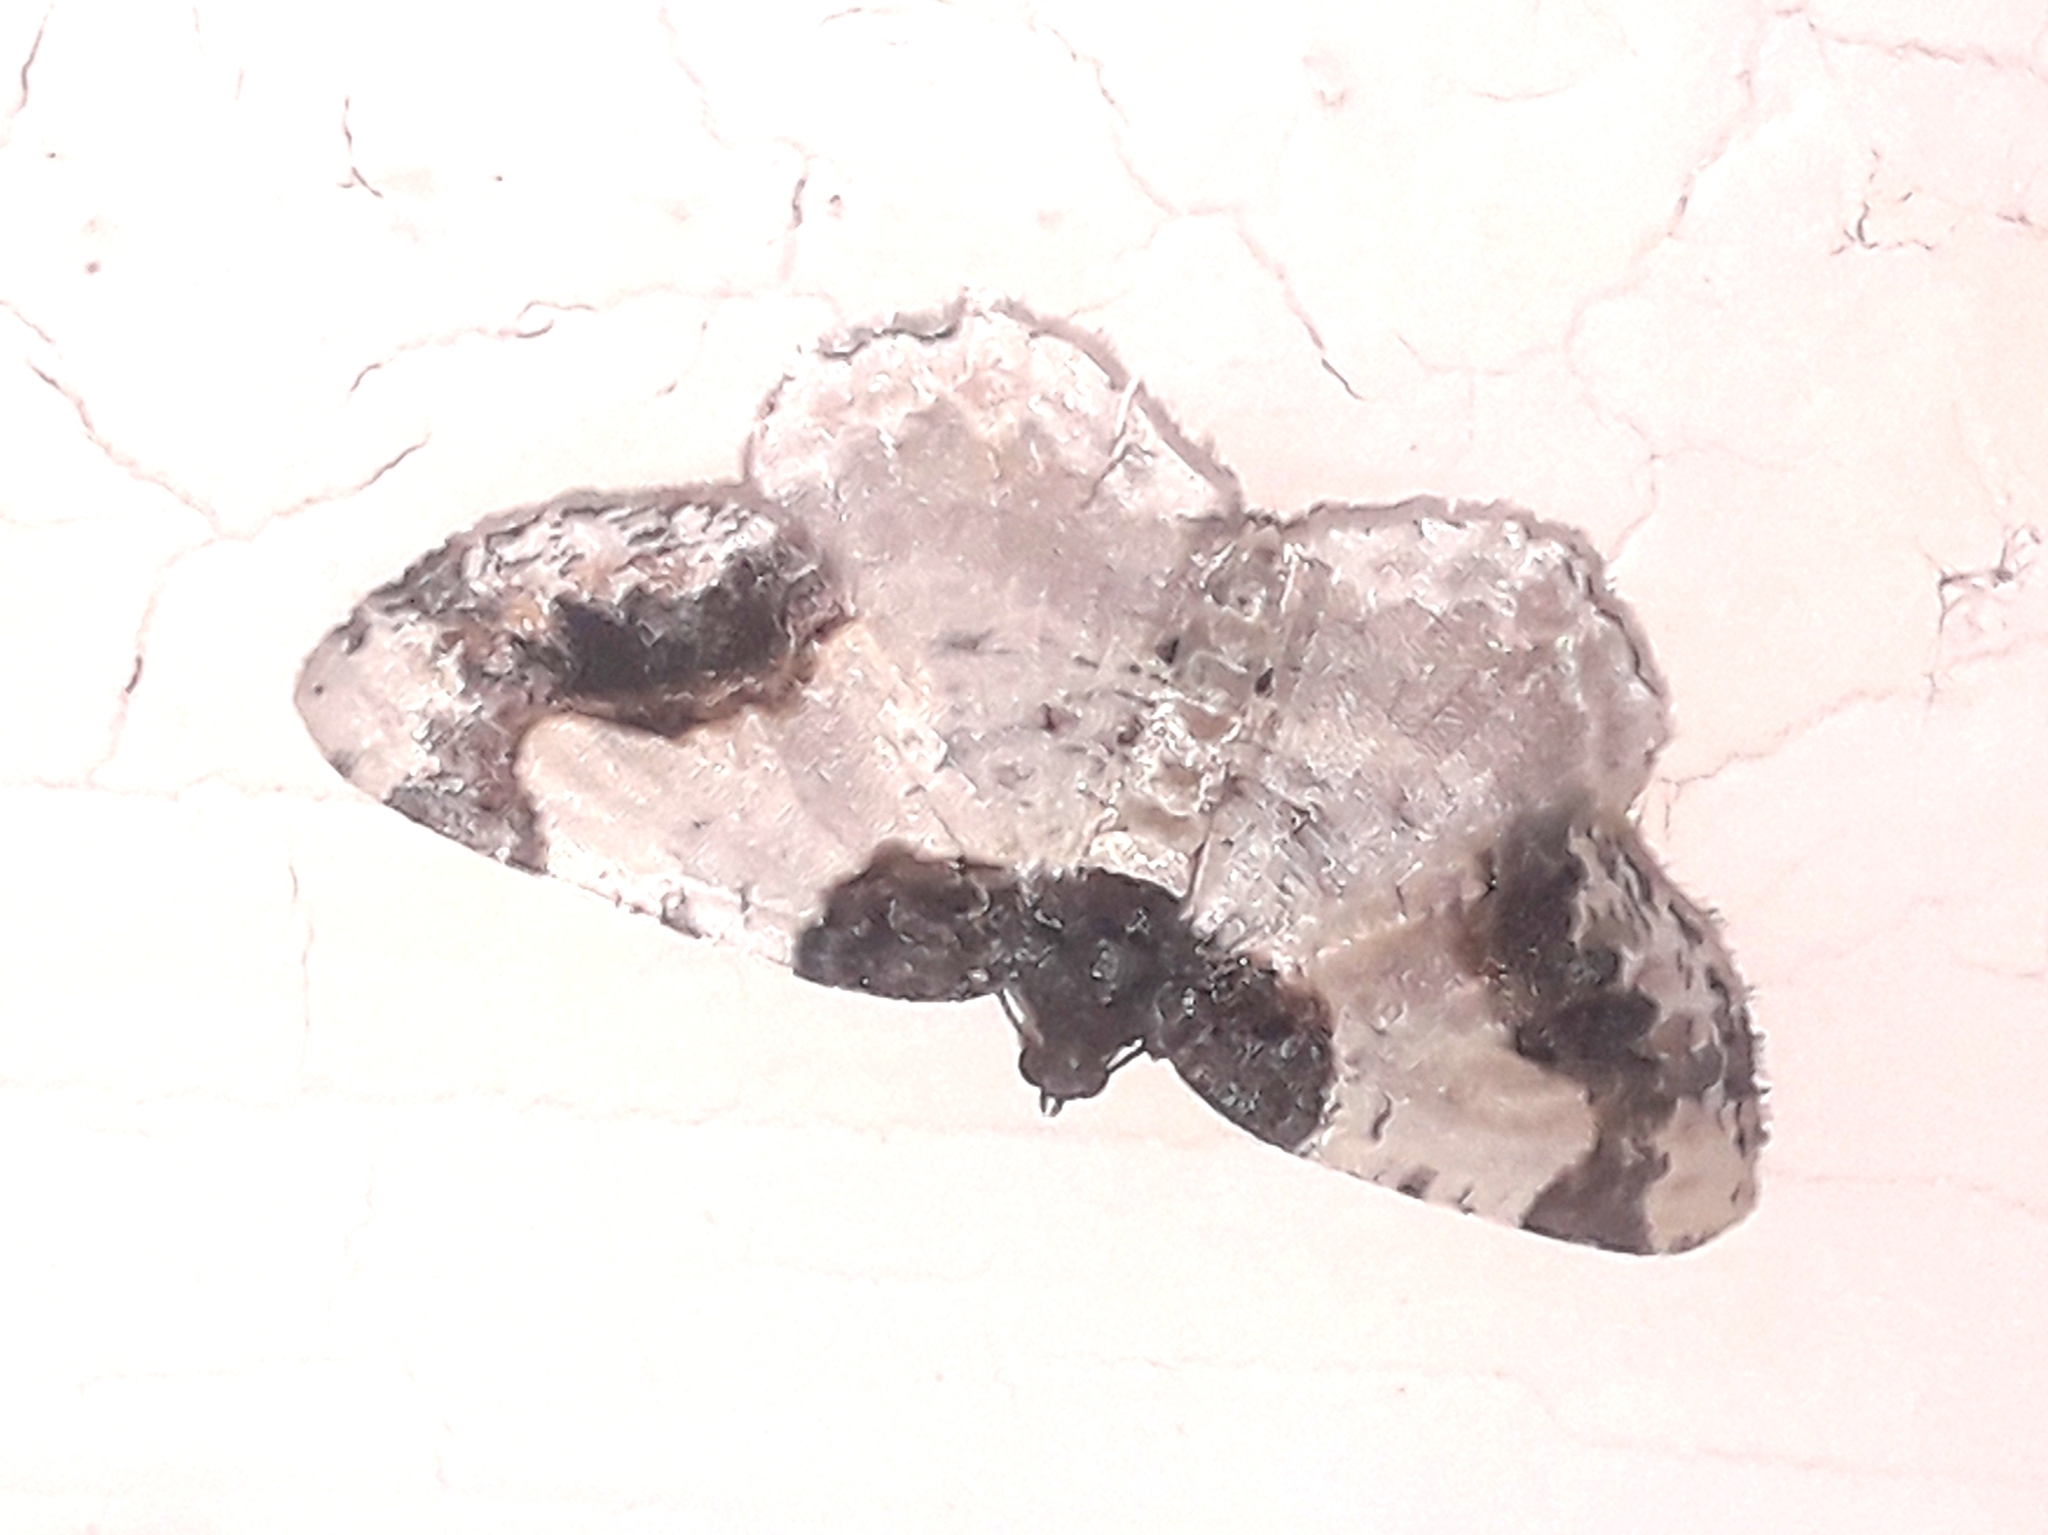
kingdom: Animalia
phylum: Arthropoda
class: Insecta
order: Lepidoptera
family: Geometridae
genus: Ligdia
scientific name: Ligdia adustata
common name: Scorched carpet
